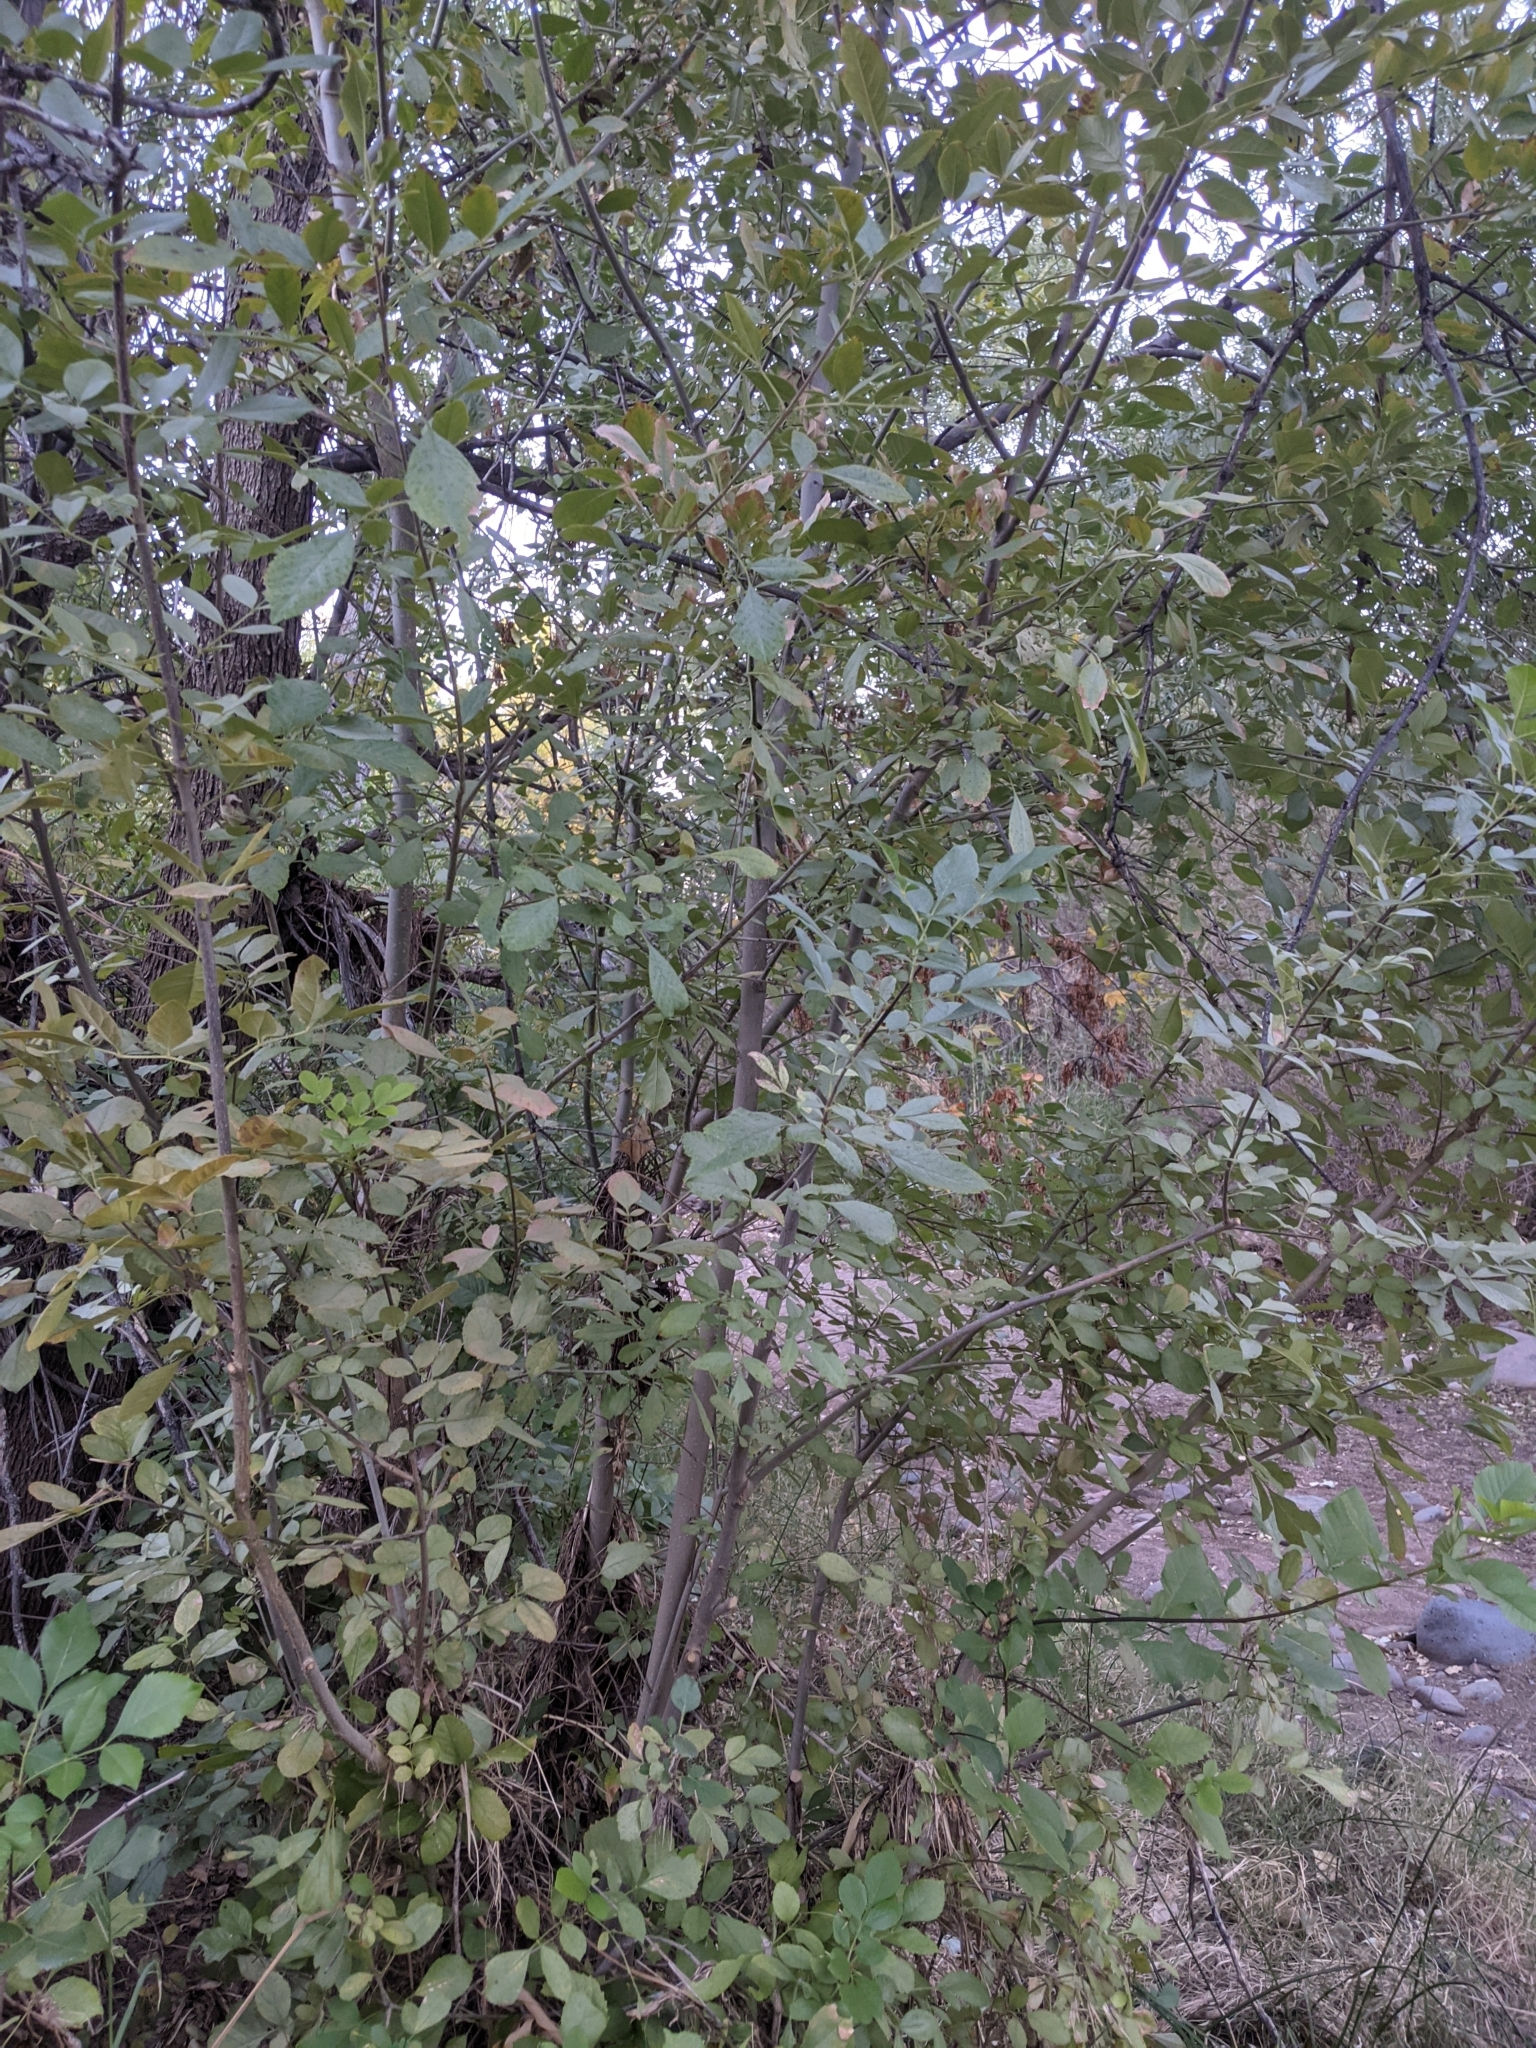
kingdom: Plantae
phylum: Tracheophyta
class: Magnoliopsida
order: Lamiales
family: Oleaceae
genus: Fraxinus
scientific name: Fraxinus velutina
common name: Arizon ash
